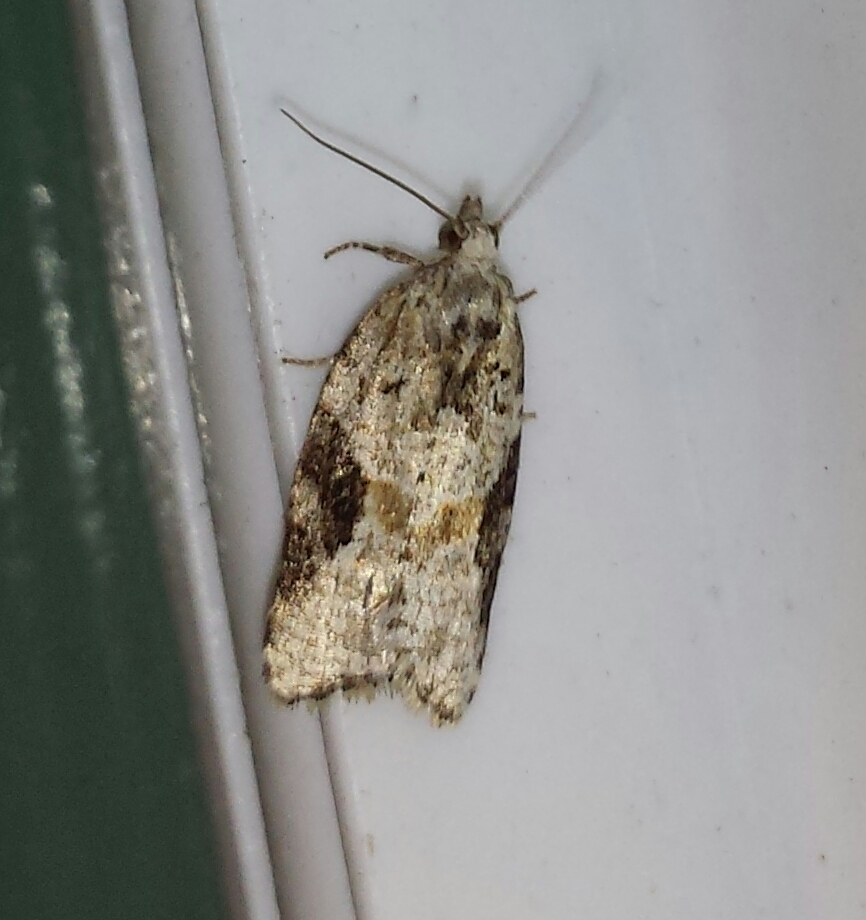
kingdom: Animalia
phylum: Arthropoda
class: Insecta
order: Lepidoptera
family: Tortricidae
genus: Argyrotaenia
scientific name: Argyrotaenia mariana
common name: Gray-banded leafroller moth
